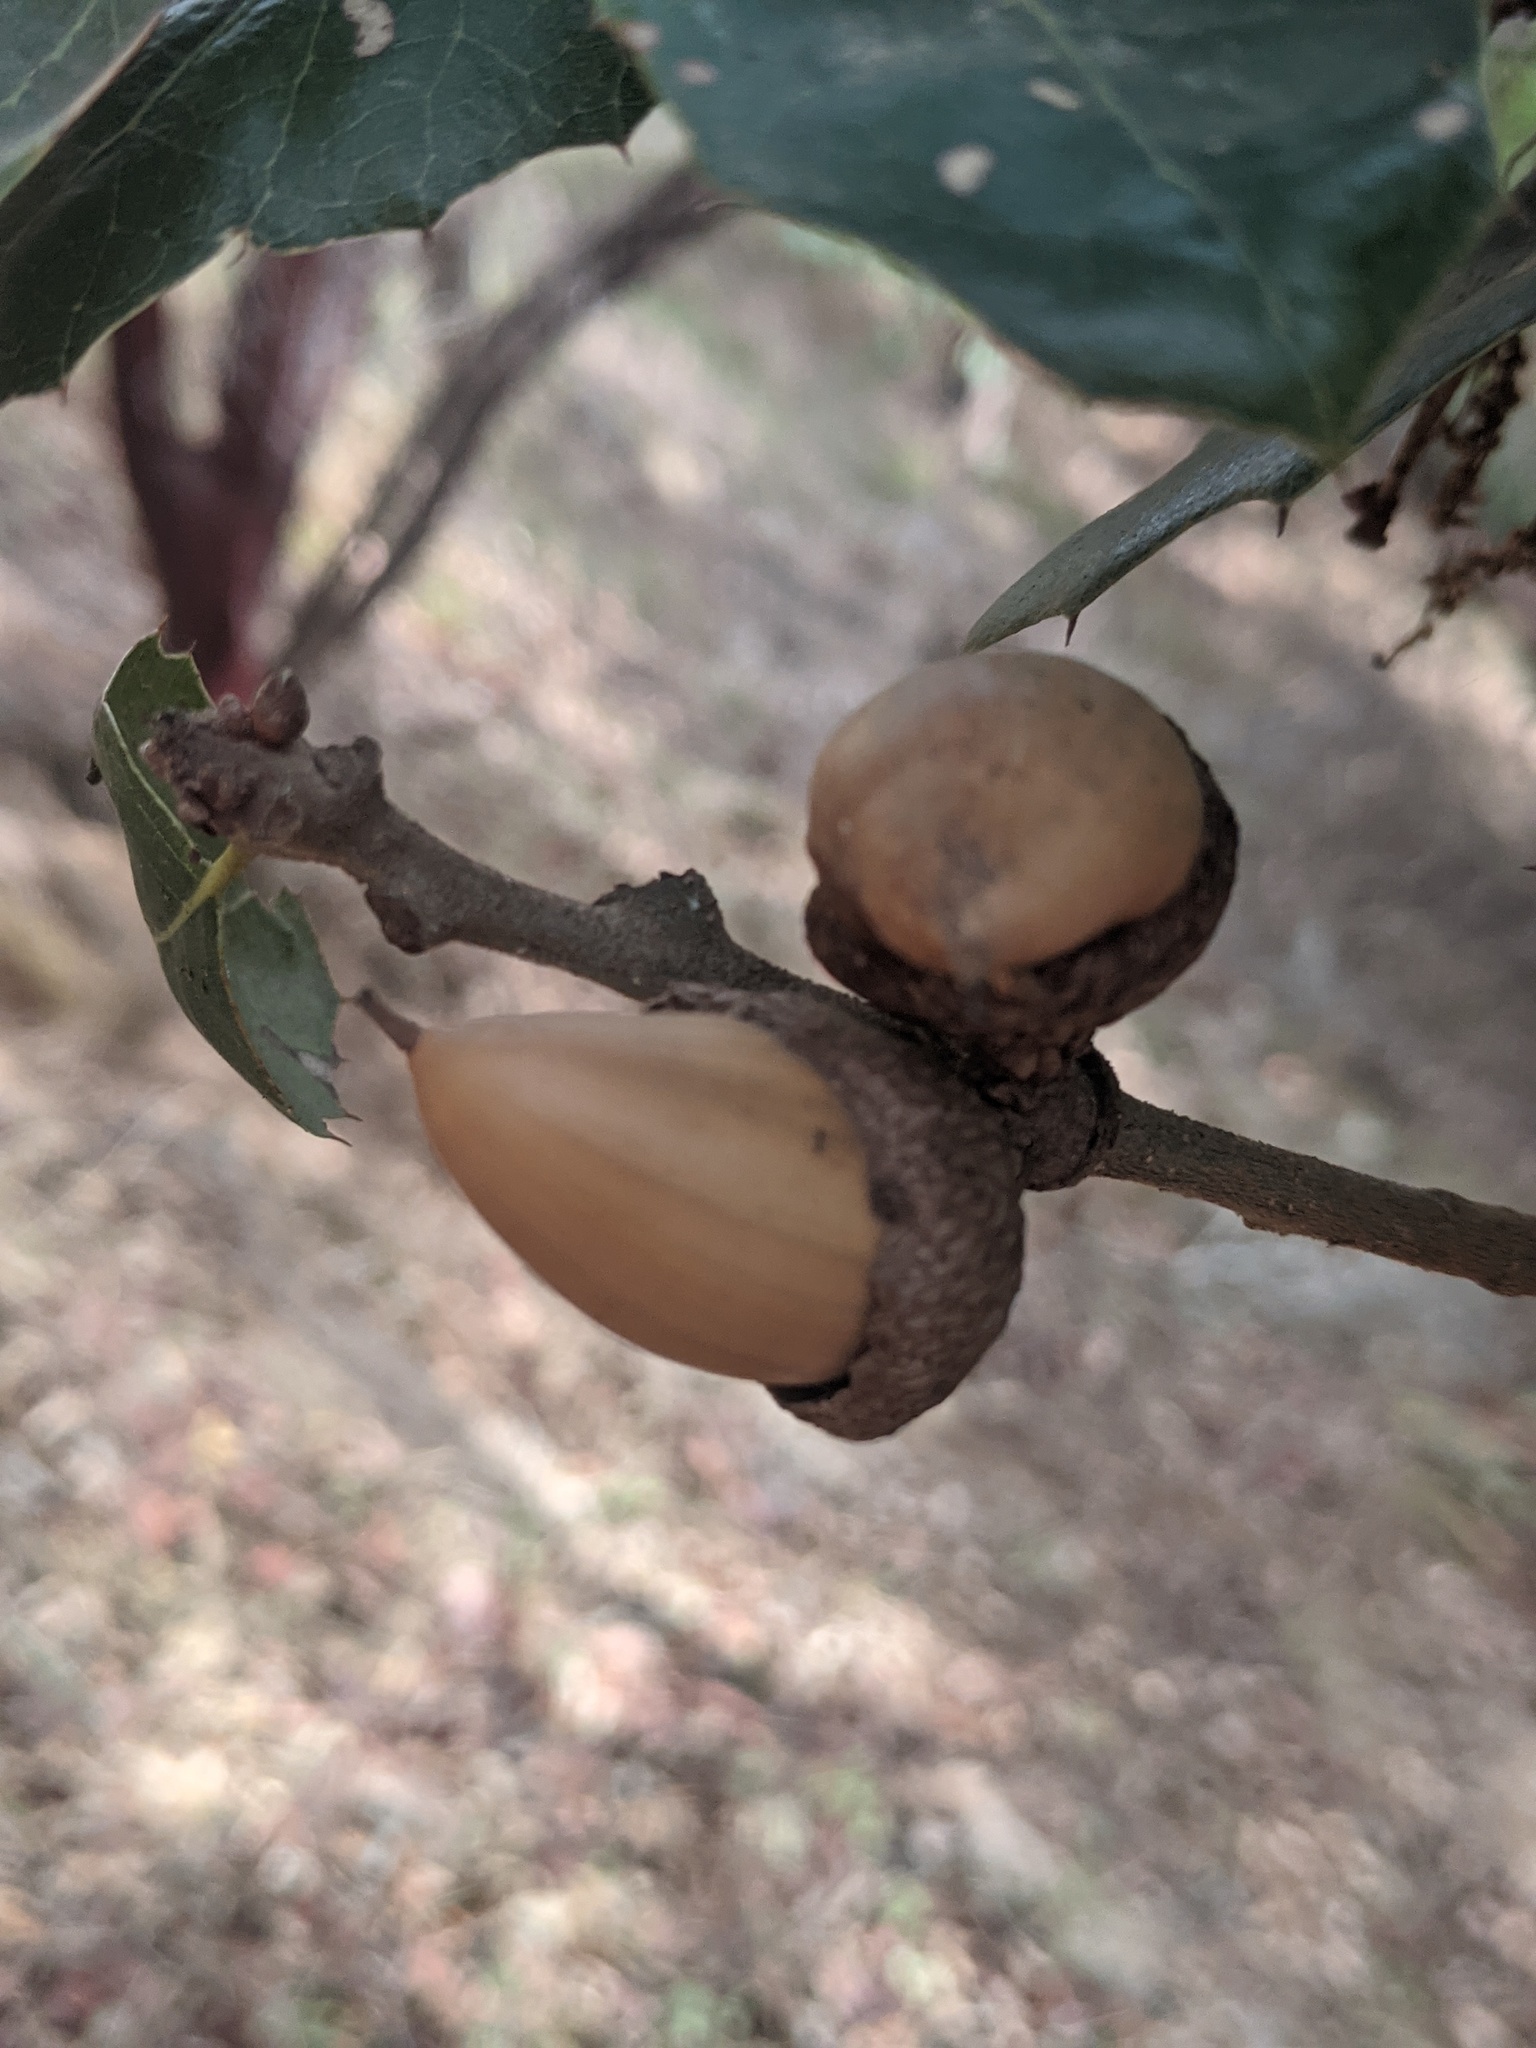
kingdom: Plantae
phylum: Tracheophyta
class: Magnoliopsida
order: Fagales
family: Fagaceae
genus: Quercus
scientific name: Quercus agrifolia
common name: California live oak
